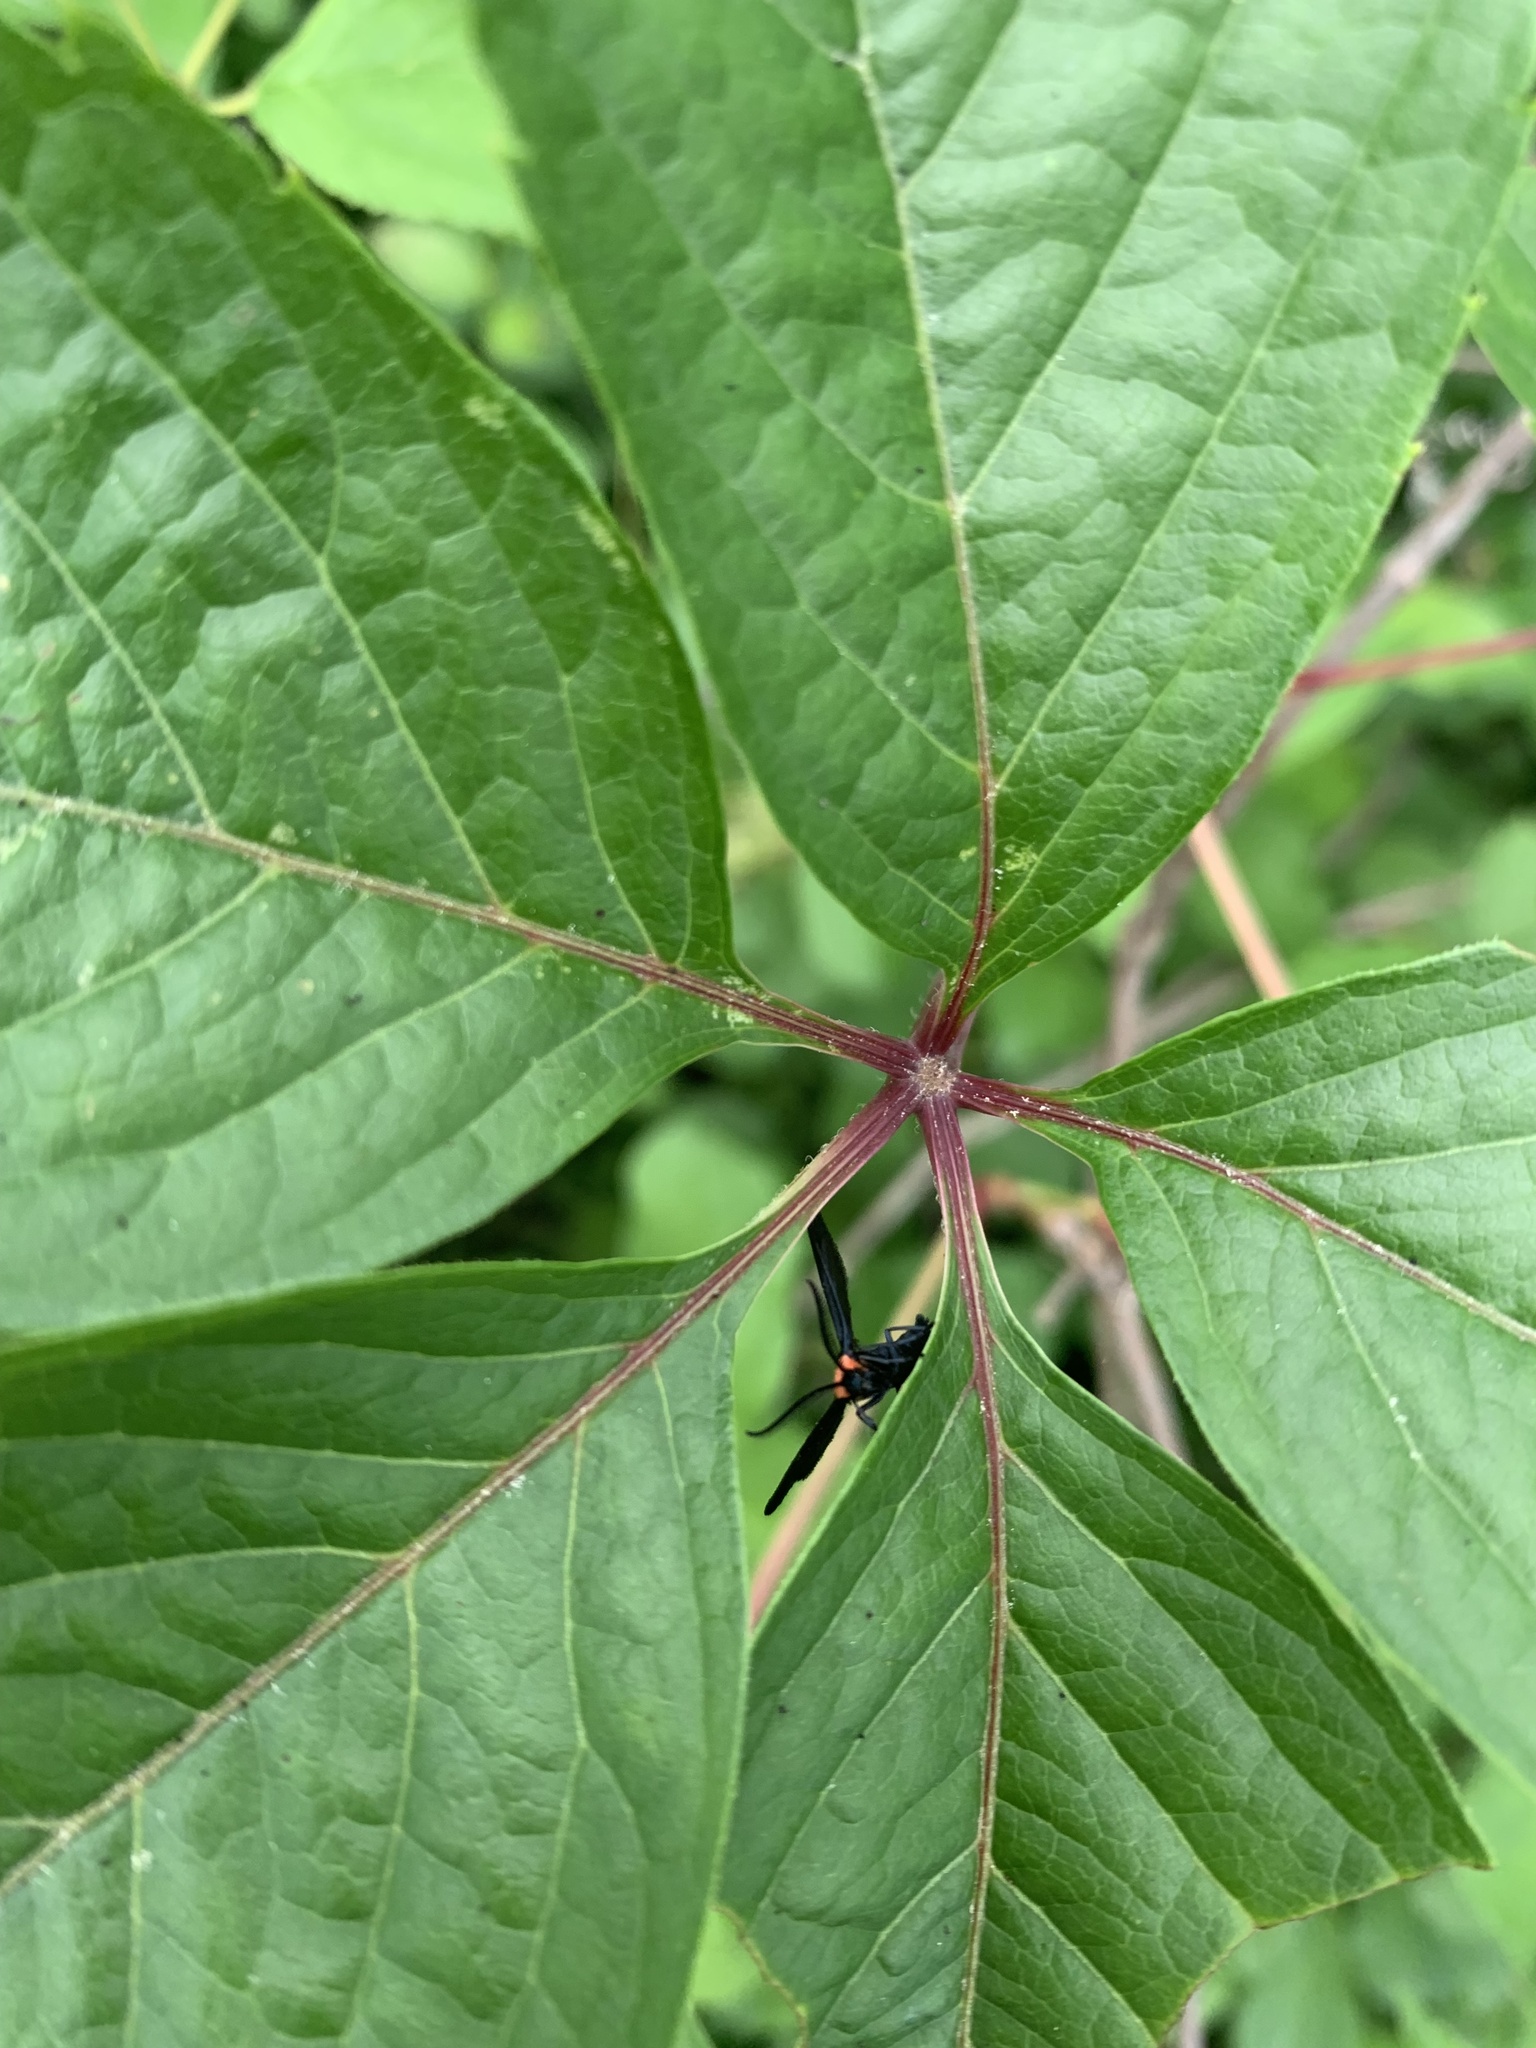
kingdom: Animalia
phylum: Arthropoda
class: Insecta
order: Lepidoptera
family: Zygaenidae
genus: Harrisina
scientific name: Harrisina americana
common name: Grapeleaf skeletonizer moth
